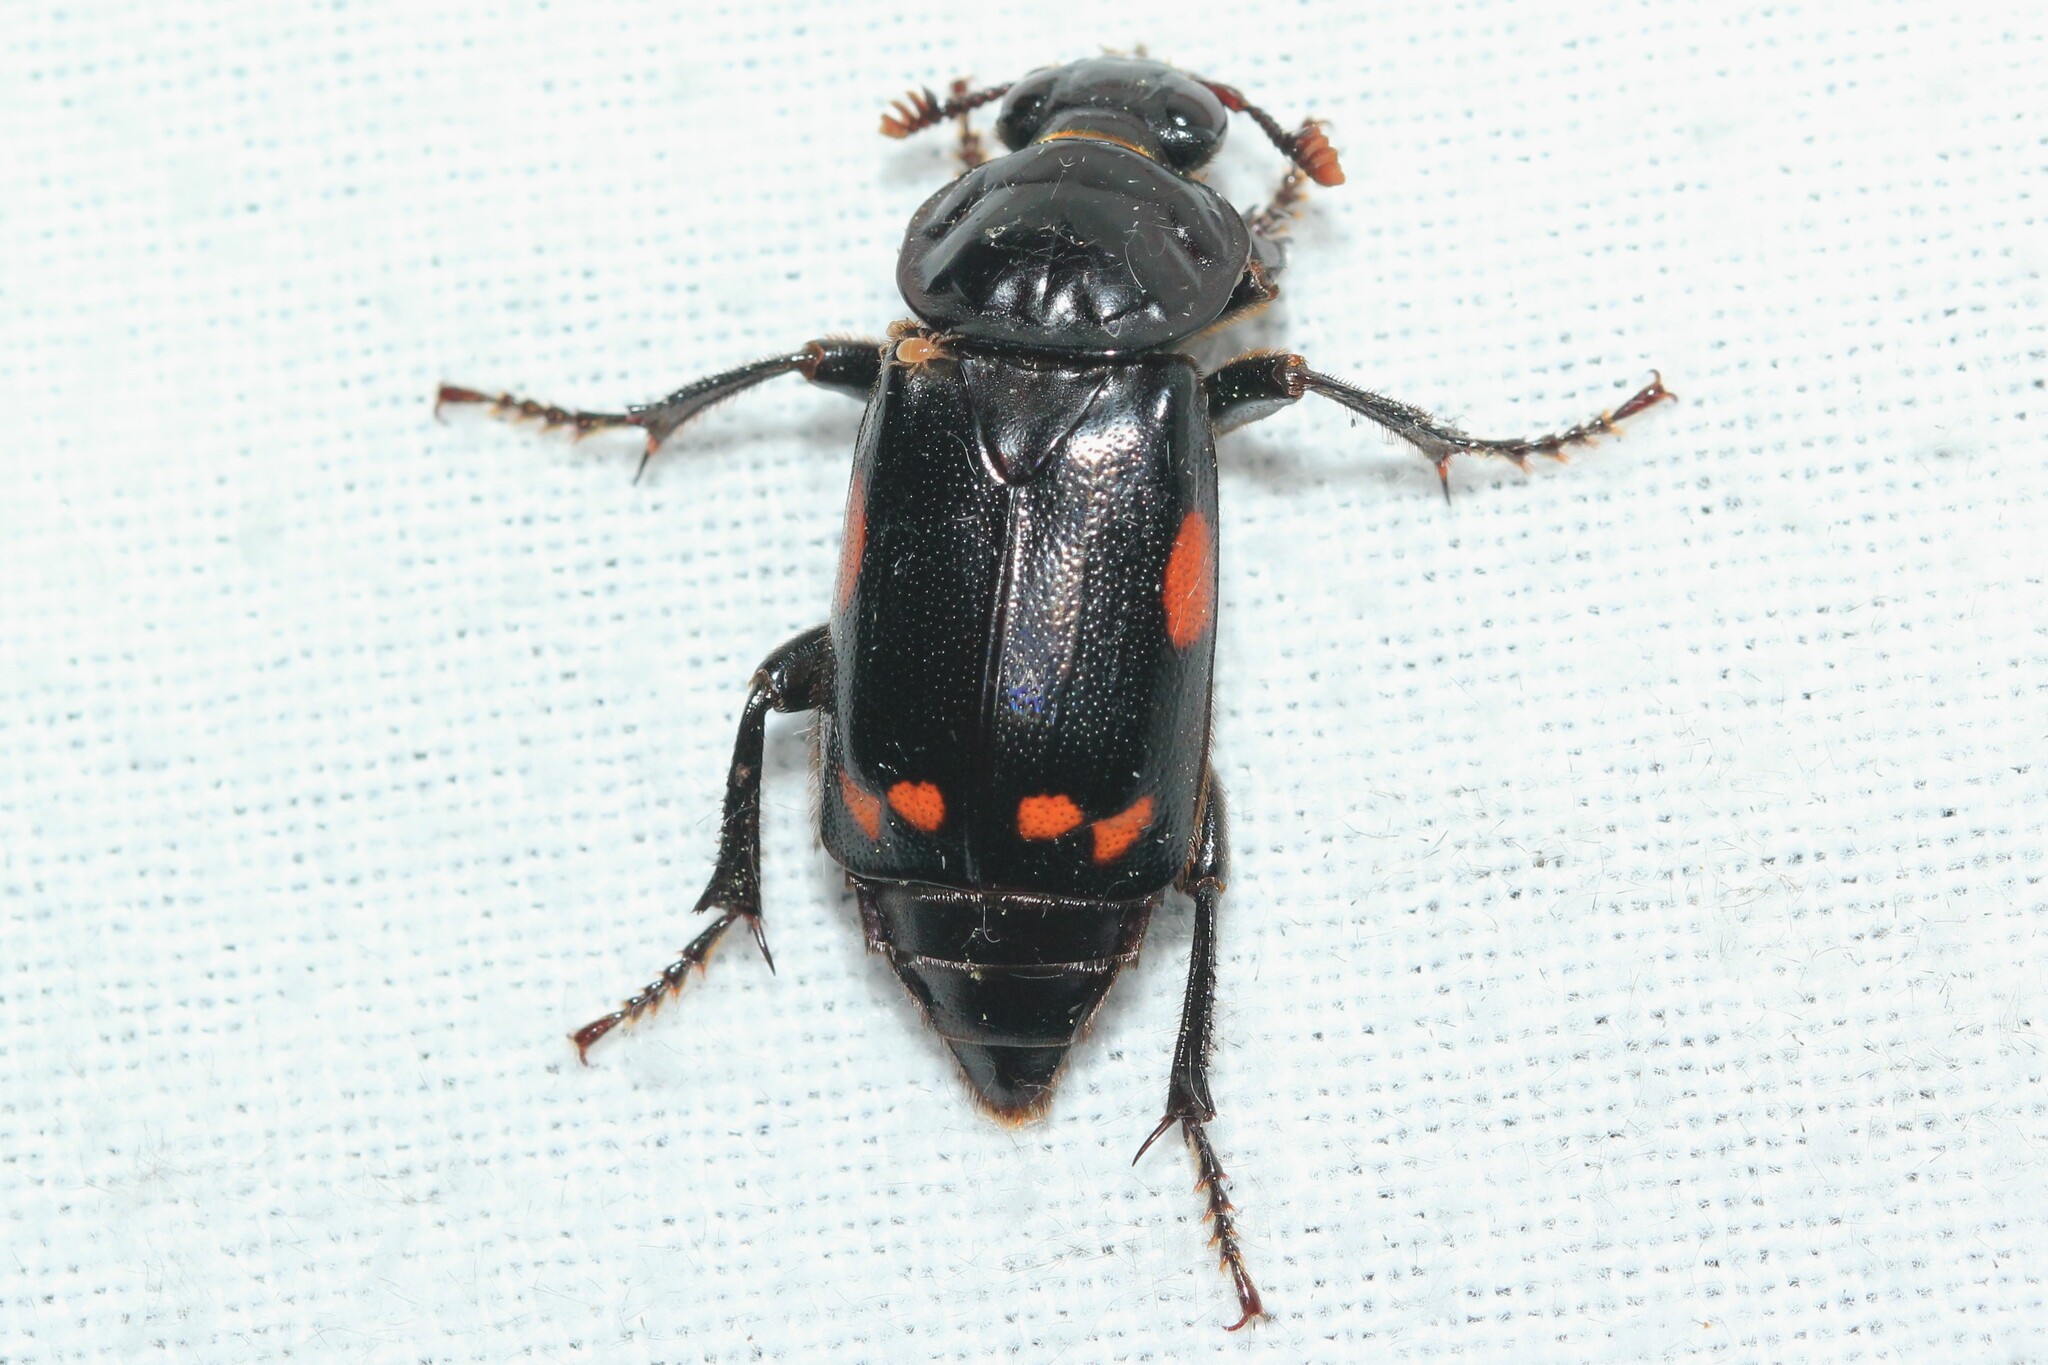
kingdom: Animalia
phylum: Arthropoda
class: Insecta
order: Coleoptera
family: Staphylinidae
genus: Nicrophorus
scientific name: Nicrophorus pustulatus
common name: Pustulated carrion beetle
